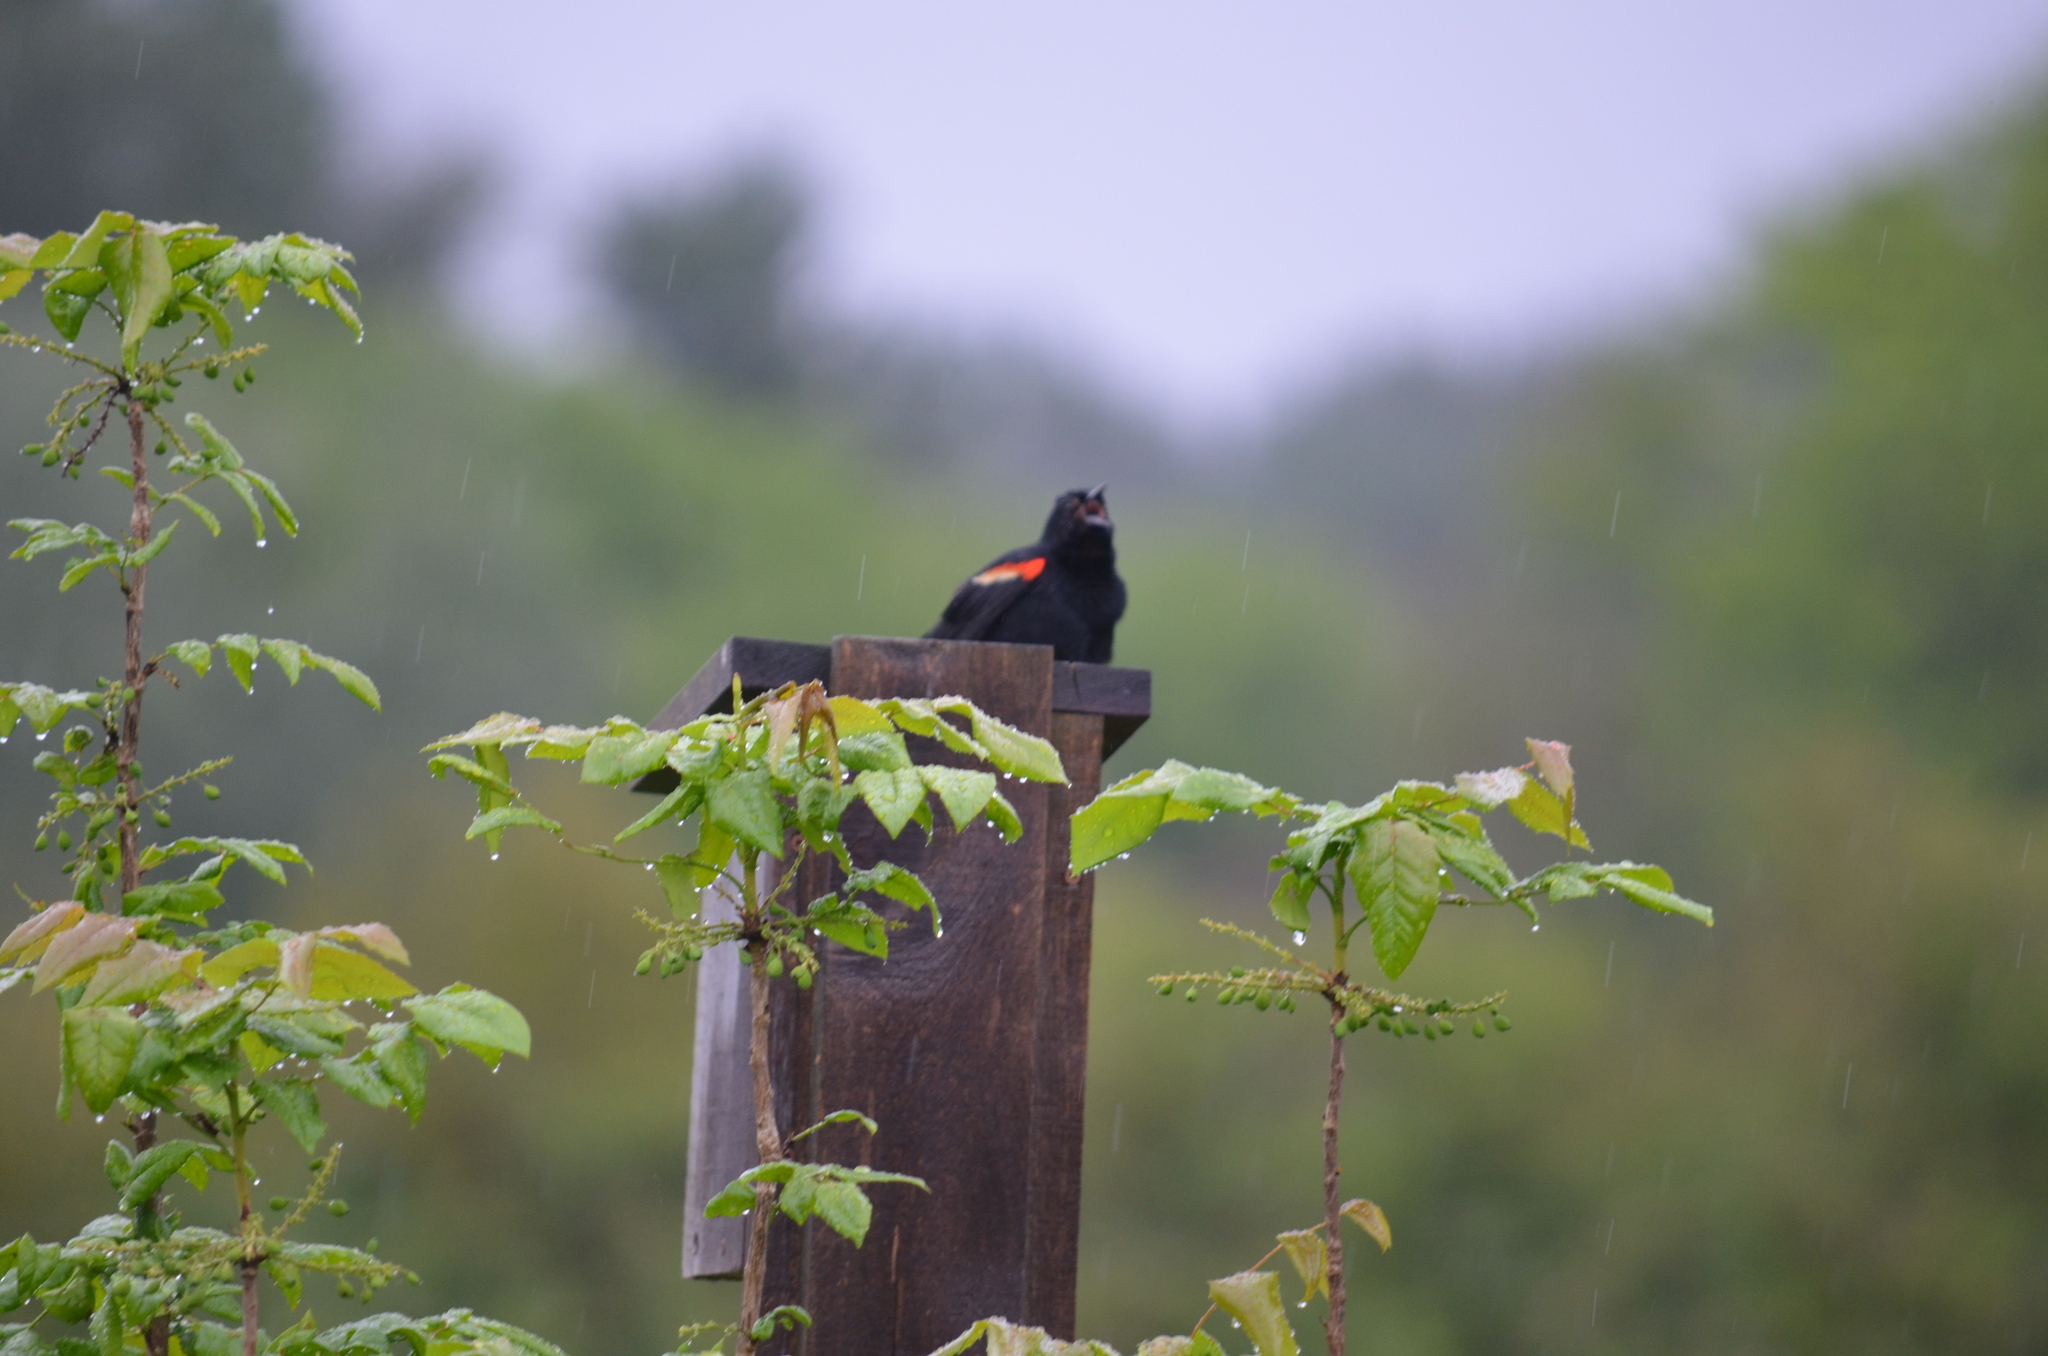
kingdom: Animalia
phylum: Chordata
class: Aves
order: Passeriformes
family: Icteridae
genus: Agelaius
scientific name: Agelaius phoeniceus
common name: Red-winged blackbird
